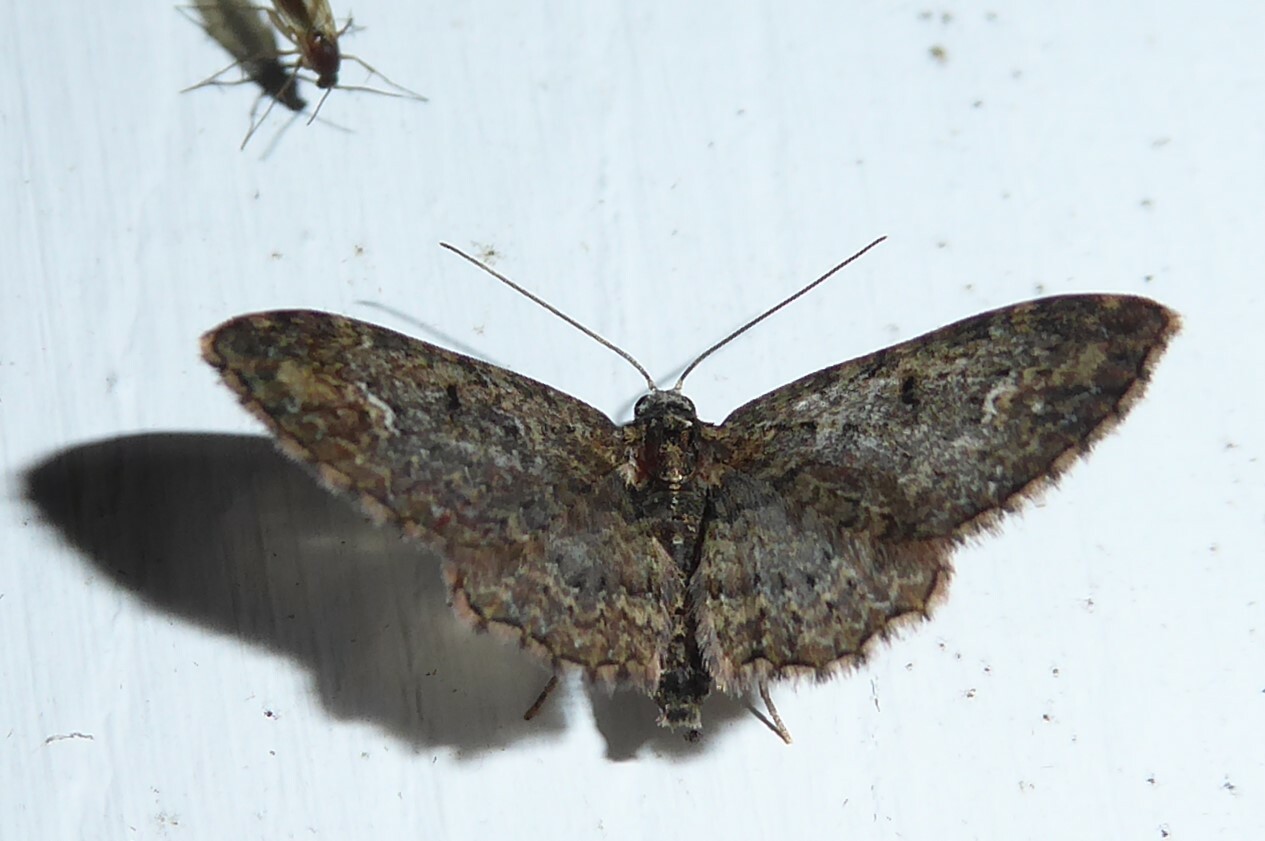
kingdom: Animalia
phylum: Arthropoda
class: Insecta
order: Lepidoptera
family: Geometridae
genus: Pasiphilodes
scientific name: Pasiphilodes testulata
